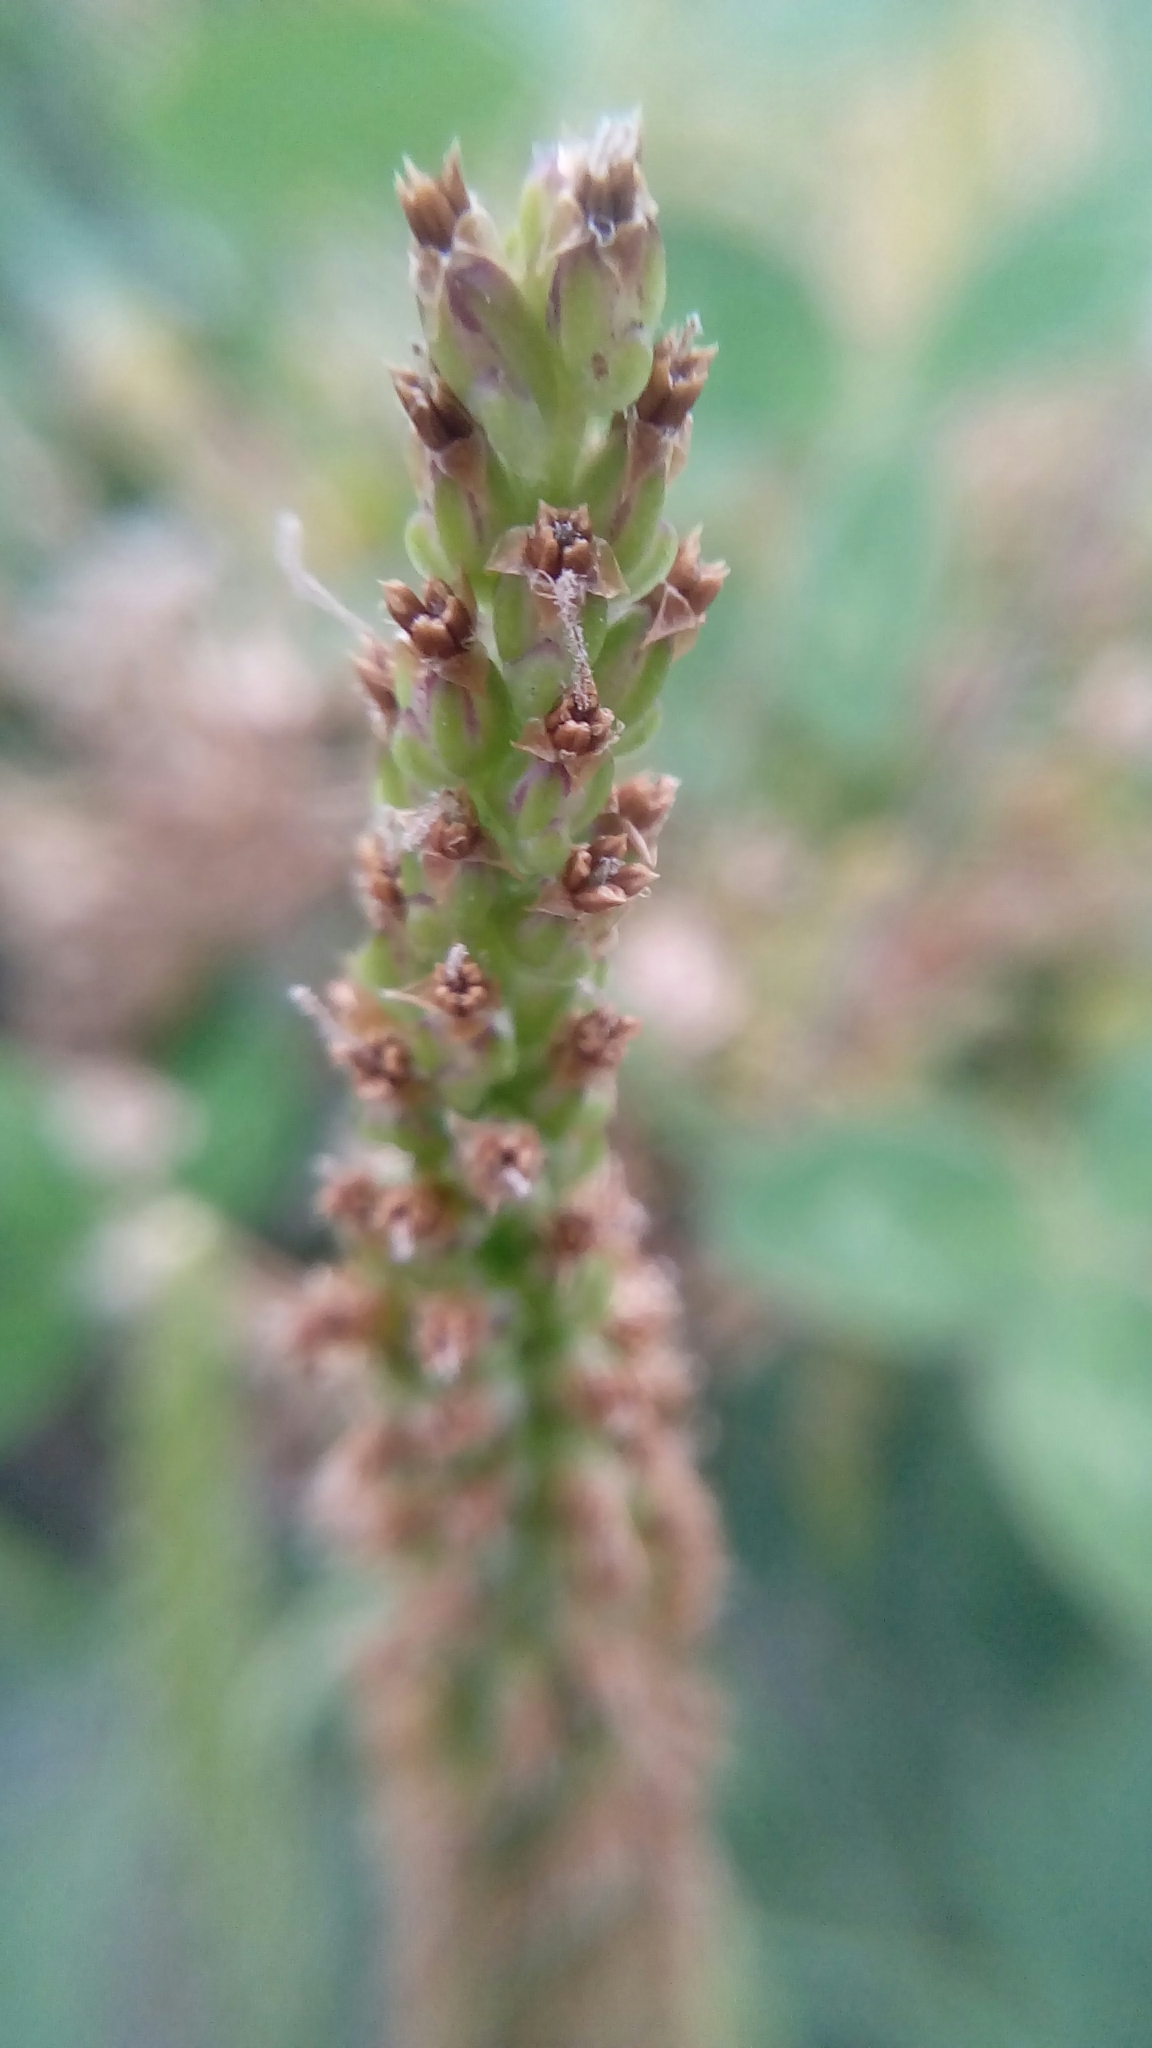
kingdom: Plantae
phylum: Tracheophyta
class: Magnoliopsida
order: Lamiales
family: Plantaginaceae
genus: Plantago
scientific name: Plantago major
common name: Common plantain
